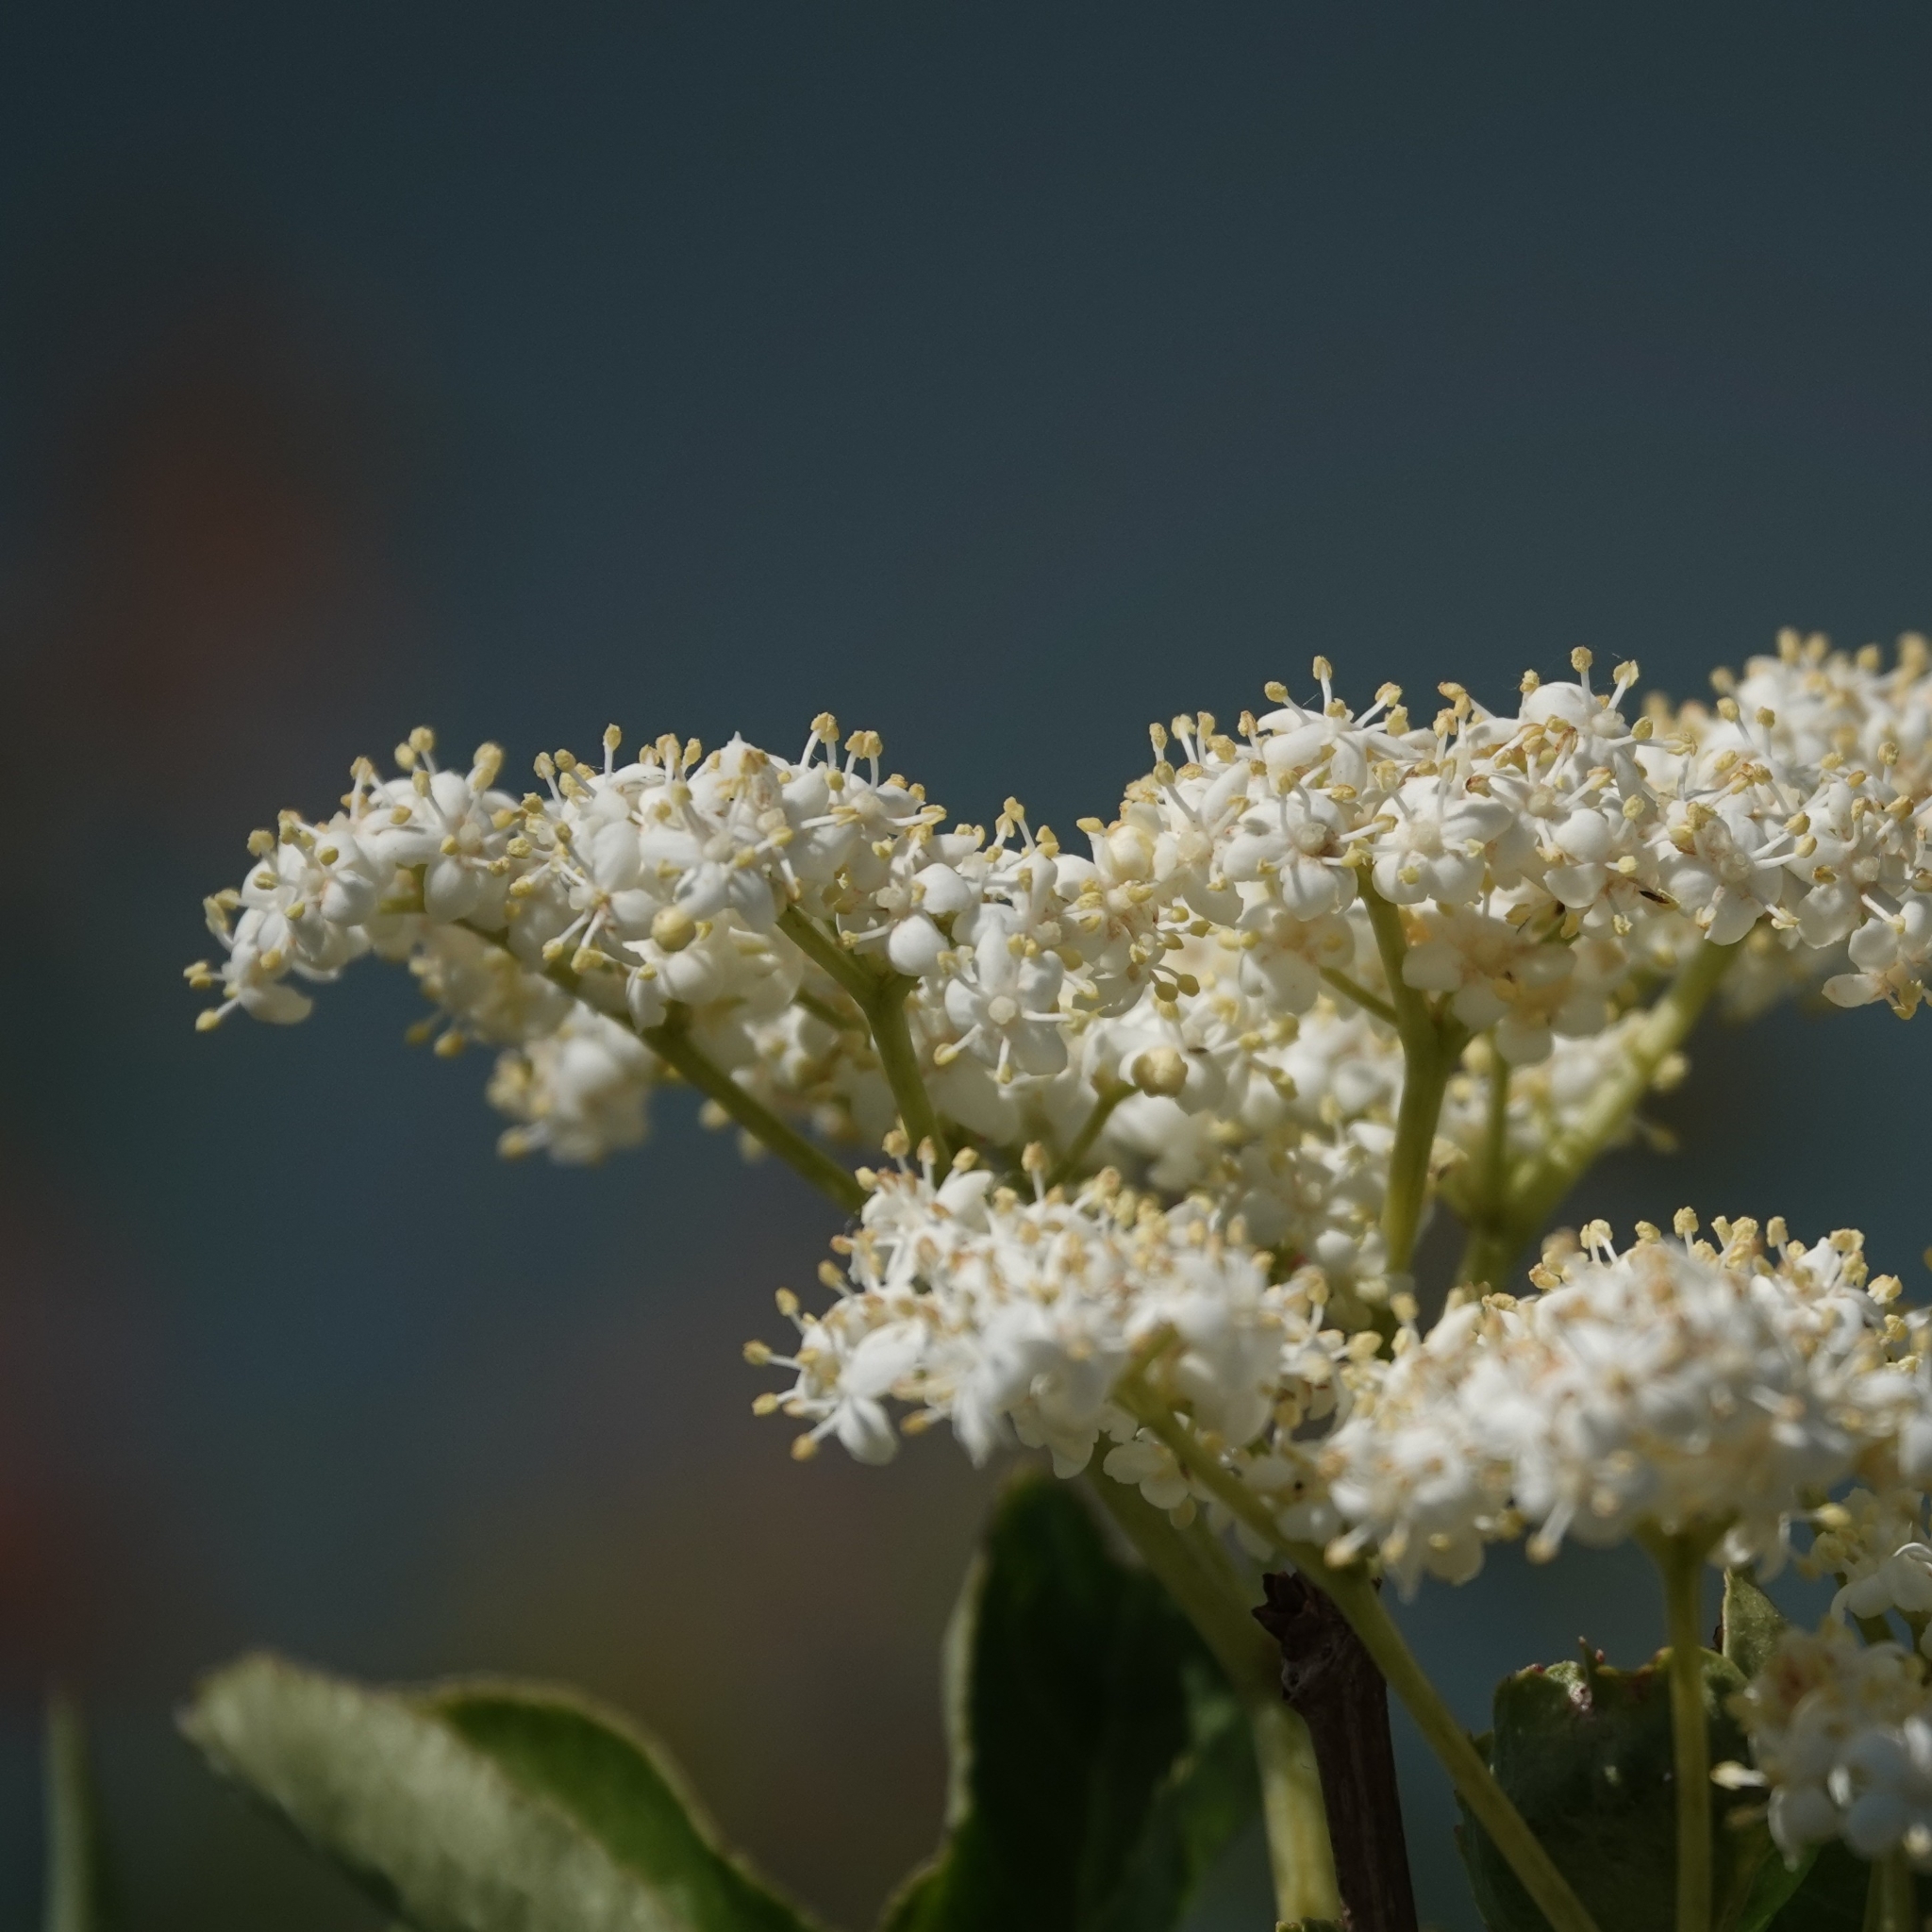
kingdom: Plantae
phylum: Tracheophyta
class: Magnoliopsida
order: Dipsacales
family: Viburnaceae
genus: Sambucus
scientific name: Sambucus nigra
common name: Elder
